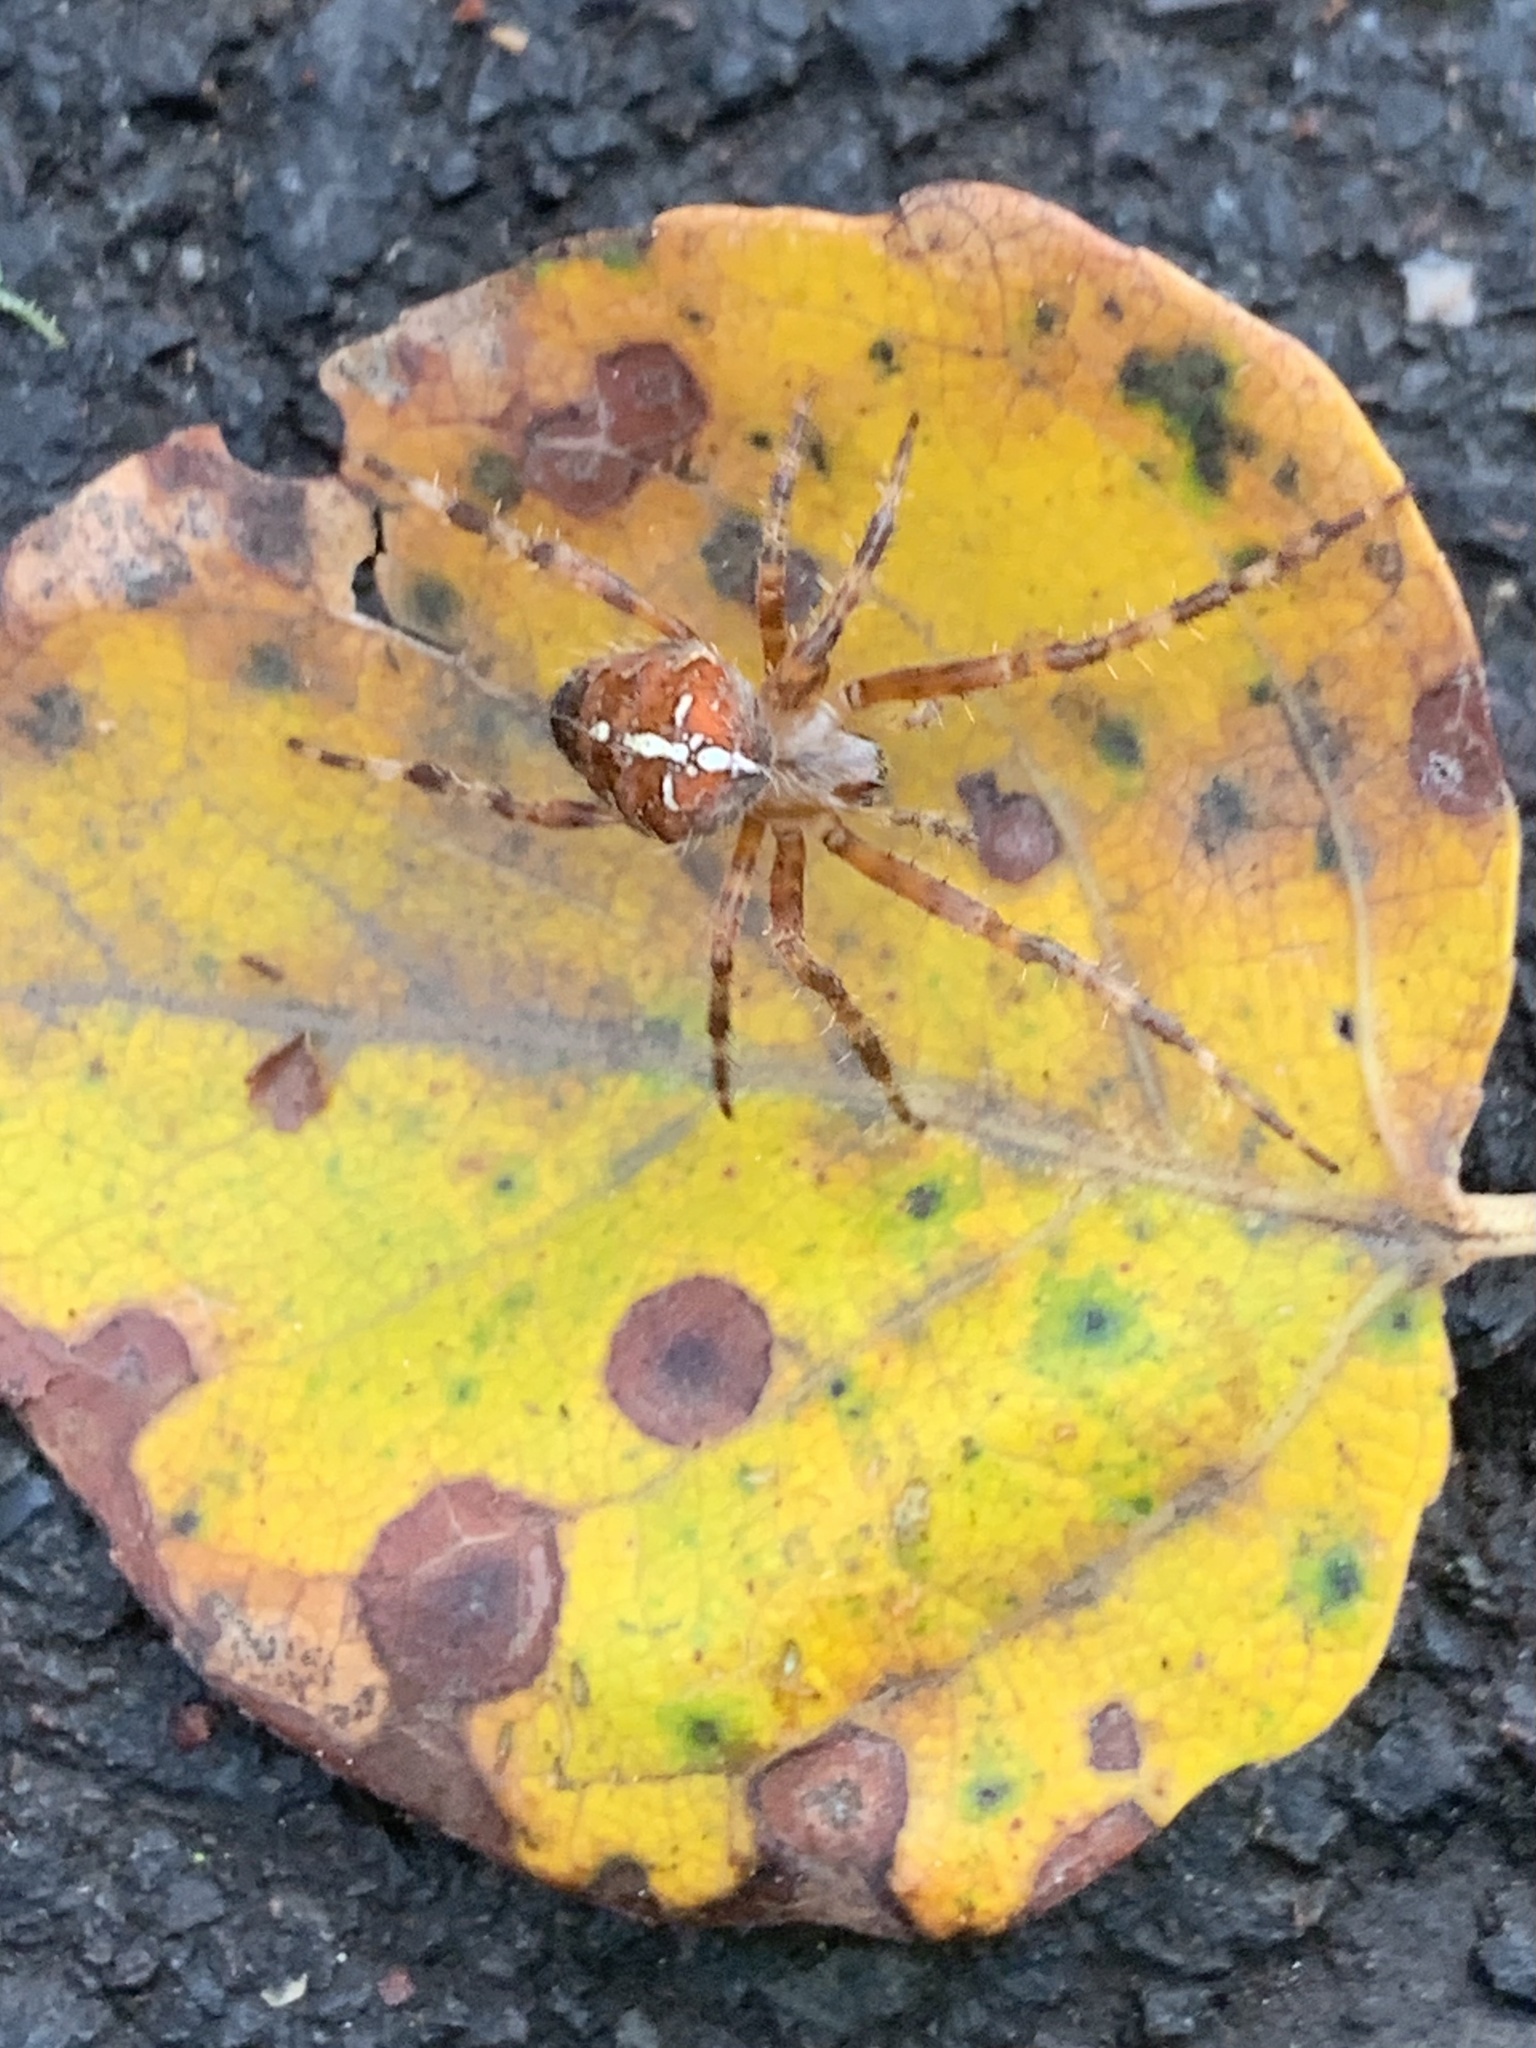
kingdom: Animalia
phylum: Arthropoda
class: Arachnida
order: Araneae
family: Araneidae
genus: Araneus
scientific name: Araneus diadematus
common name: Cross orbweaver
